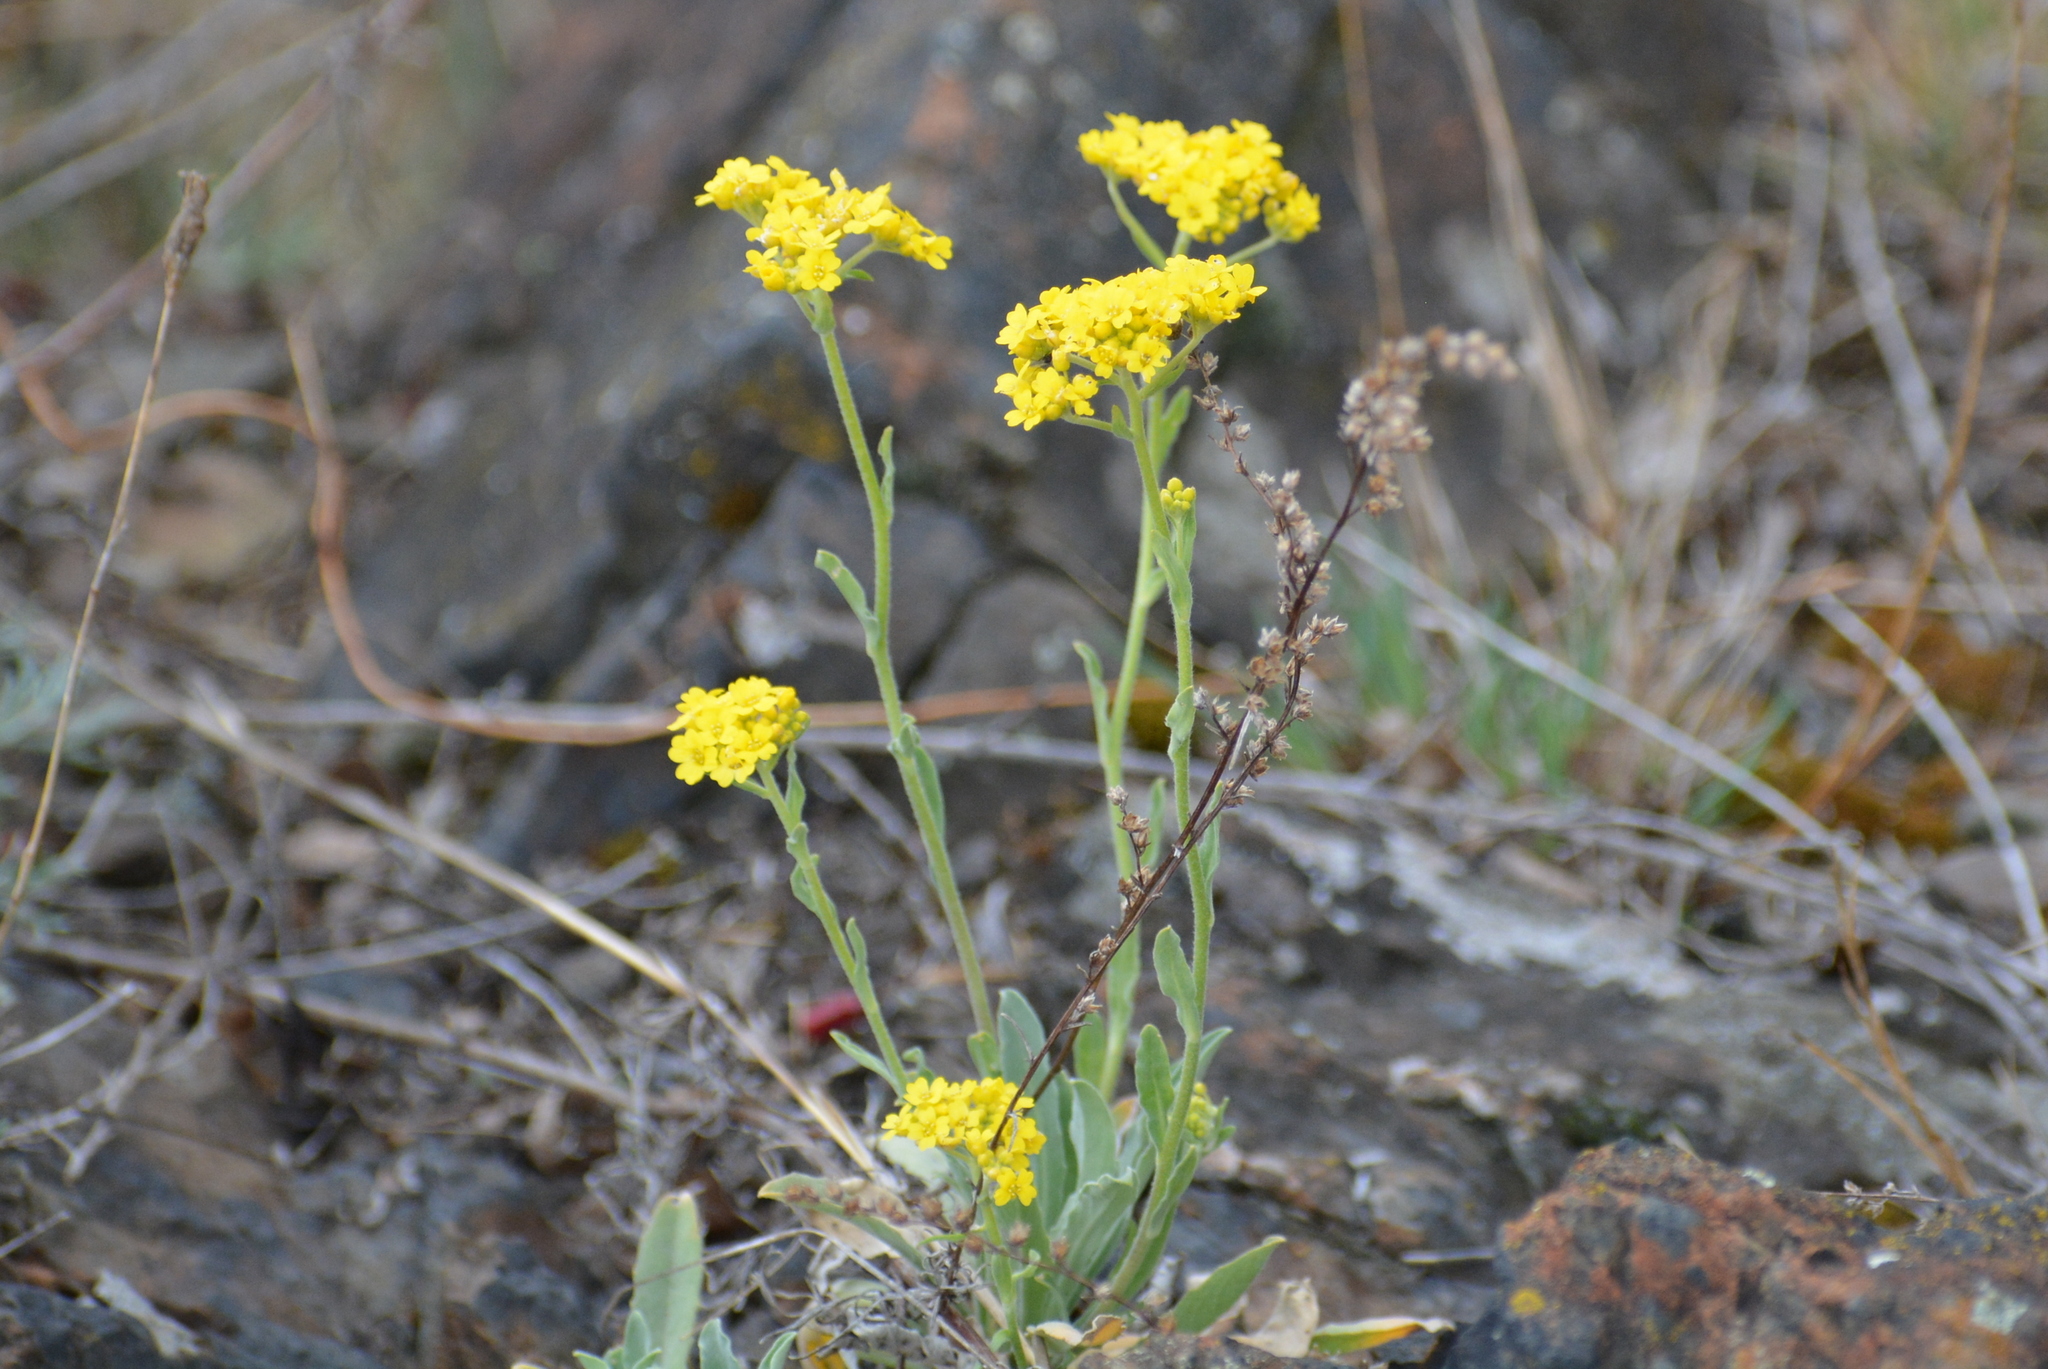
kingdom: Plantae
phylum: Tracheophyta
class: Magnoliopsida
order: Brassicales
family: Brassicaceae
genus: Aurinia
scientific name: Aurinia saxatilis
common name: Golden-tuft alyssum
